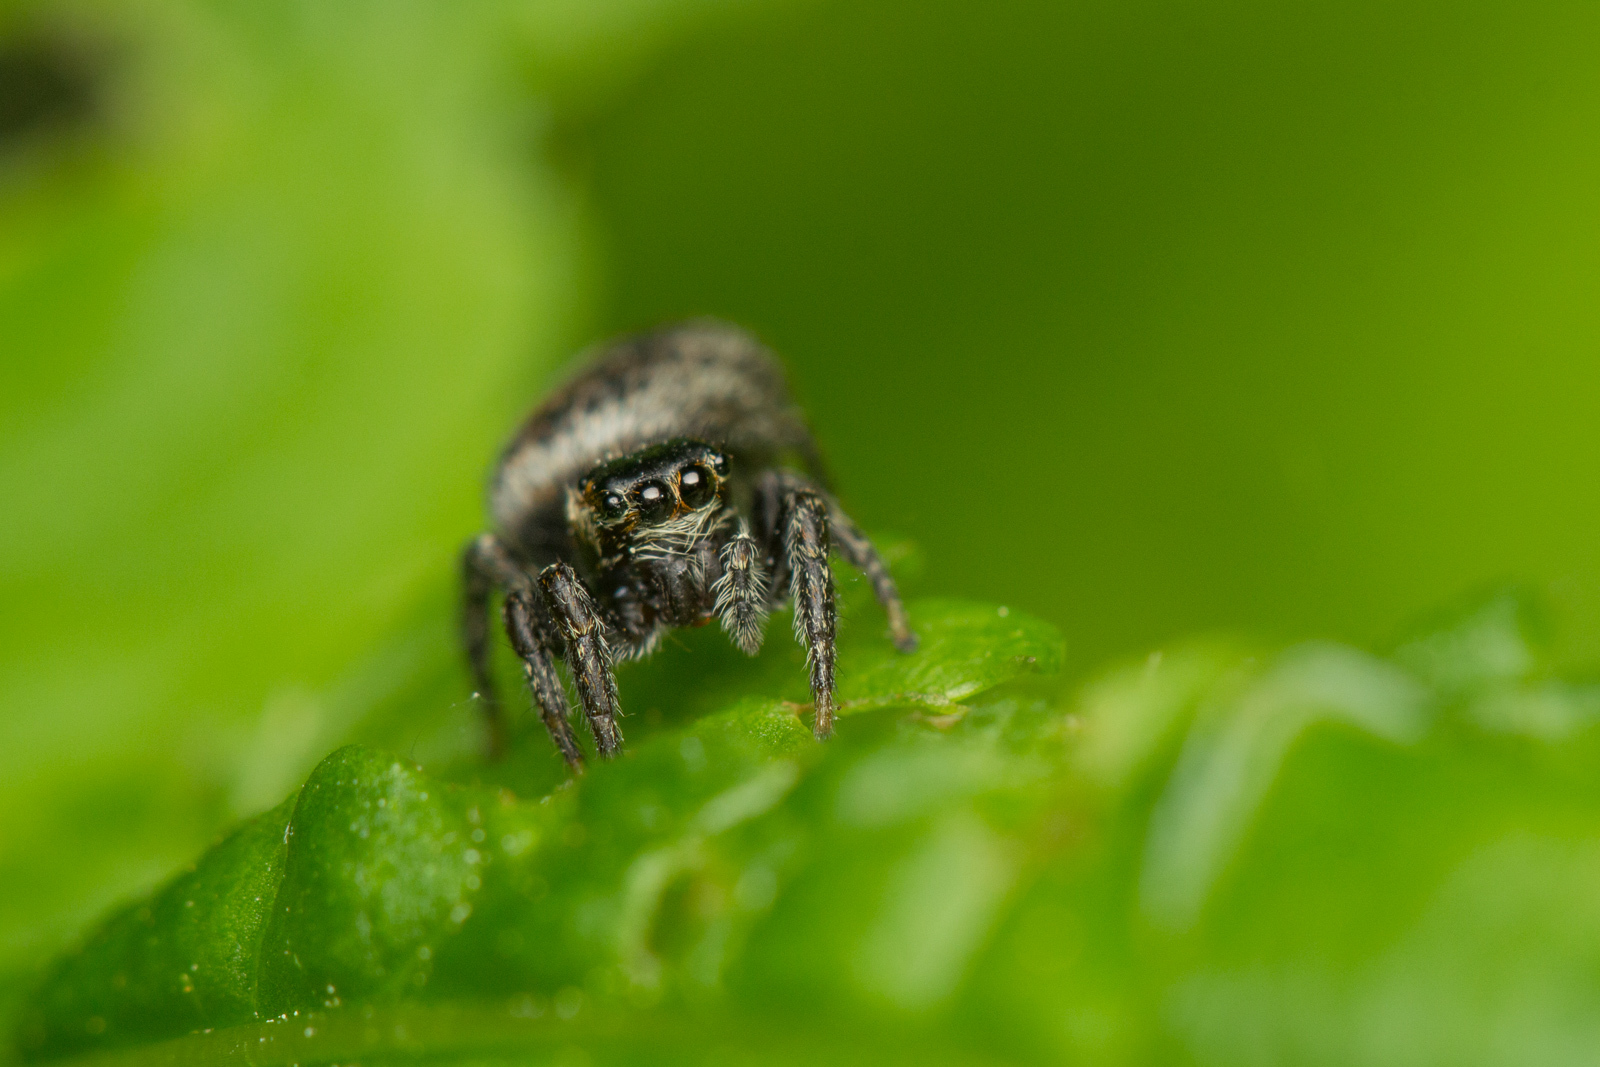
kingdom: Animalia
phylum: Arthropoda
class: Arachnida
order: Araneae
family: Salticidae
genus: Evarcha
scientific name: Evarcha falcata
